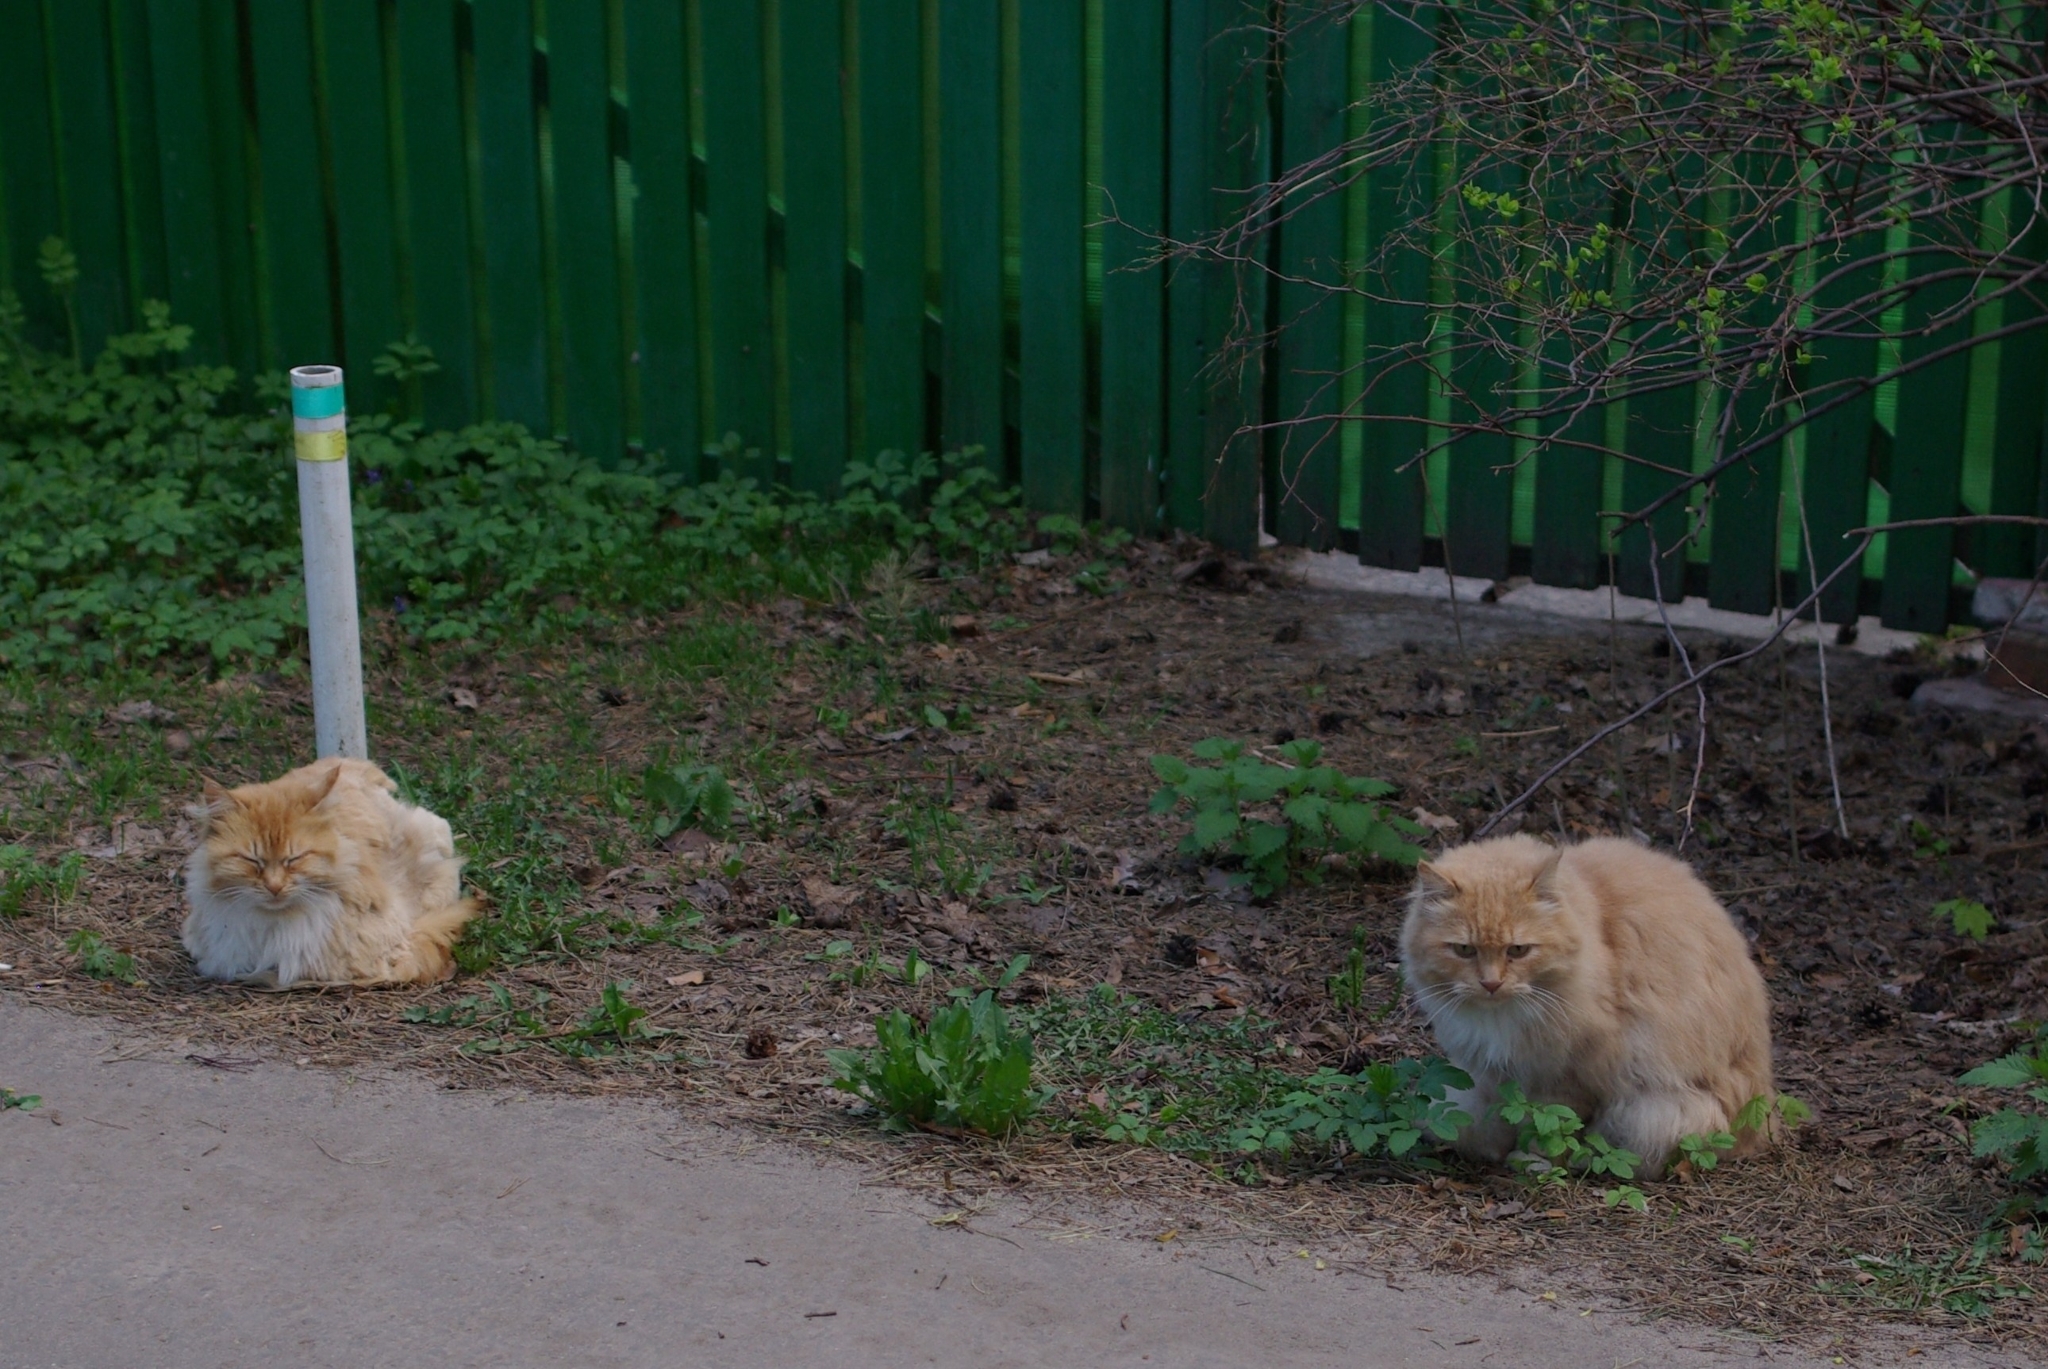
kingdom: Animalia
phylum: Chordata
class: Mammalia
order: Carnivora
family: Felidae
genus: Felis
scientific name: Felis catus
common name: Domestic cat
